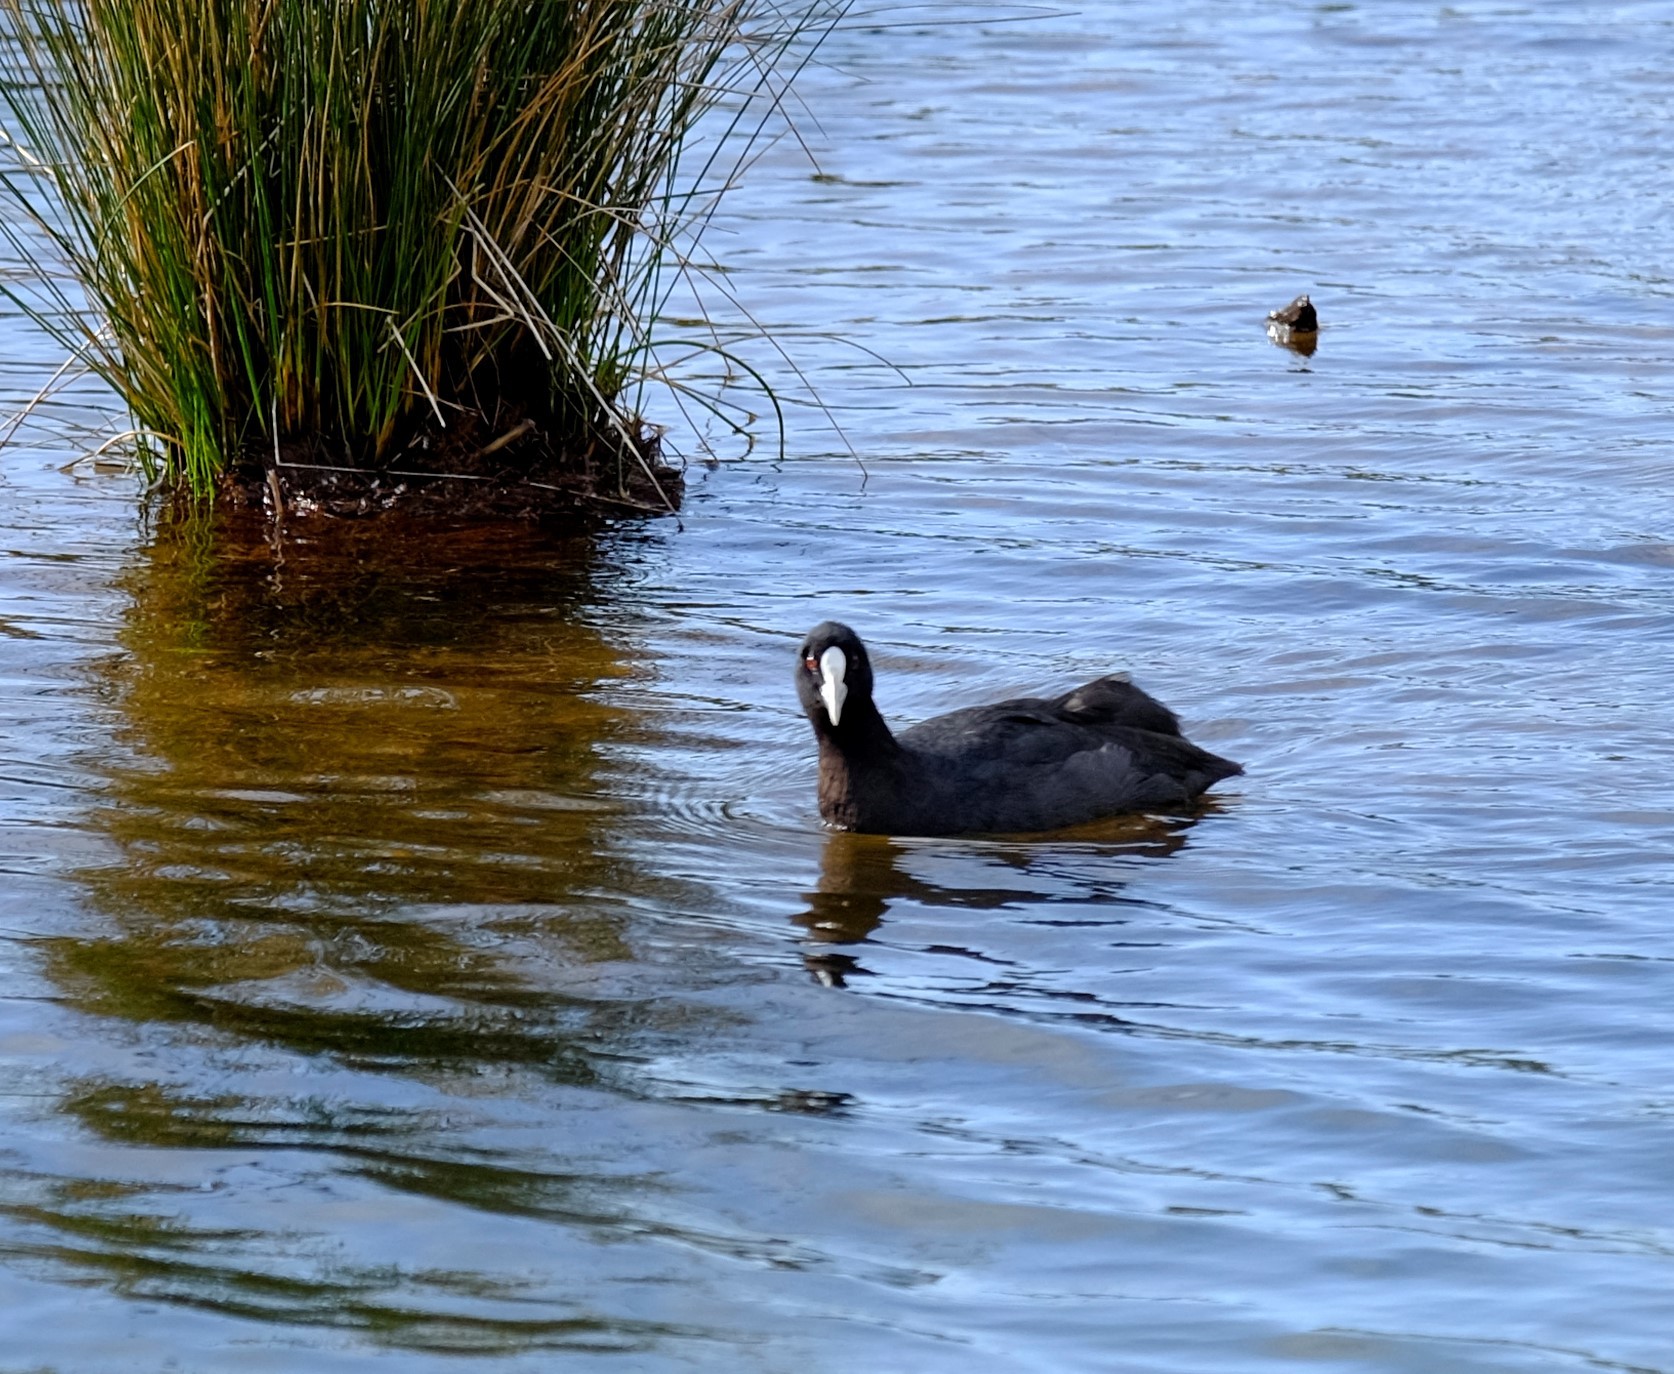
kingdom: Animalia
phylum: Chordata
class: Aves
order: Gruiformes
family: Rallidae
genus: Fulica
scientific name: Fulica atra
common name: Eurasian coot
